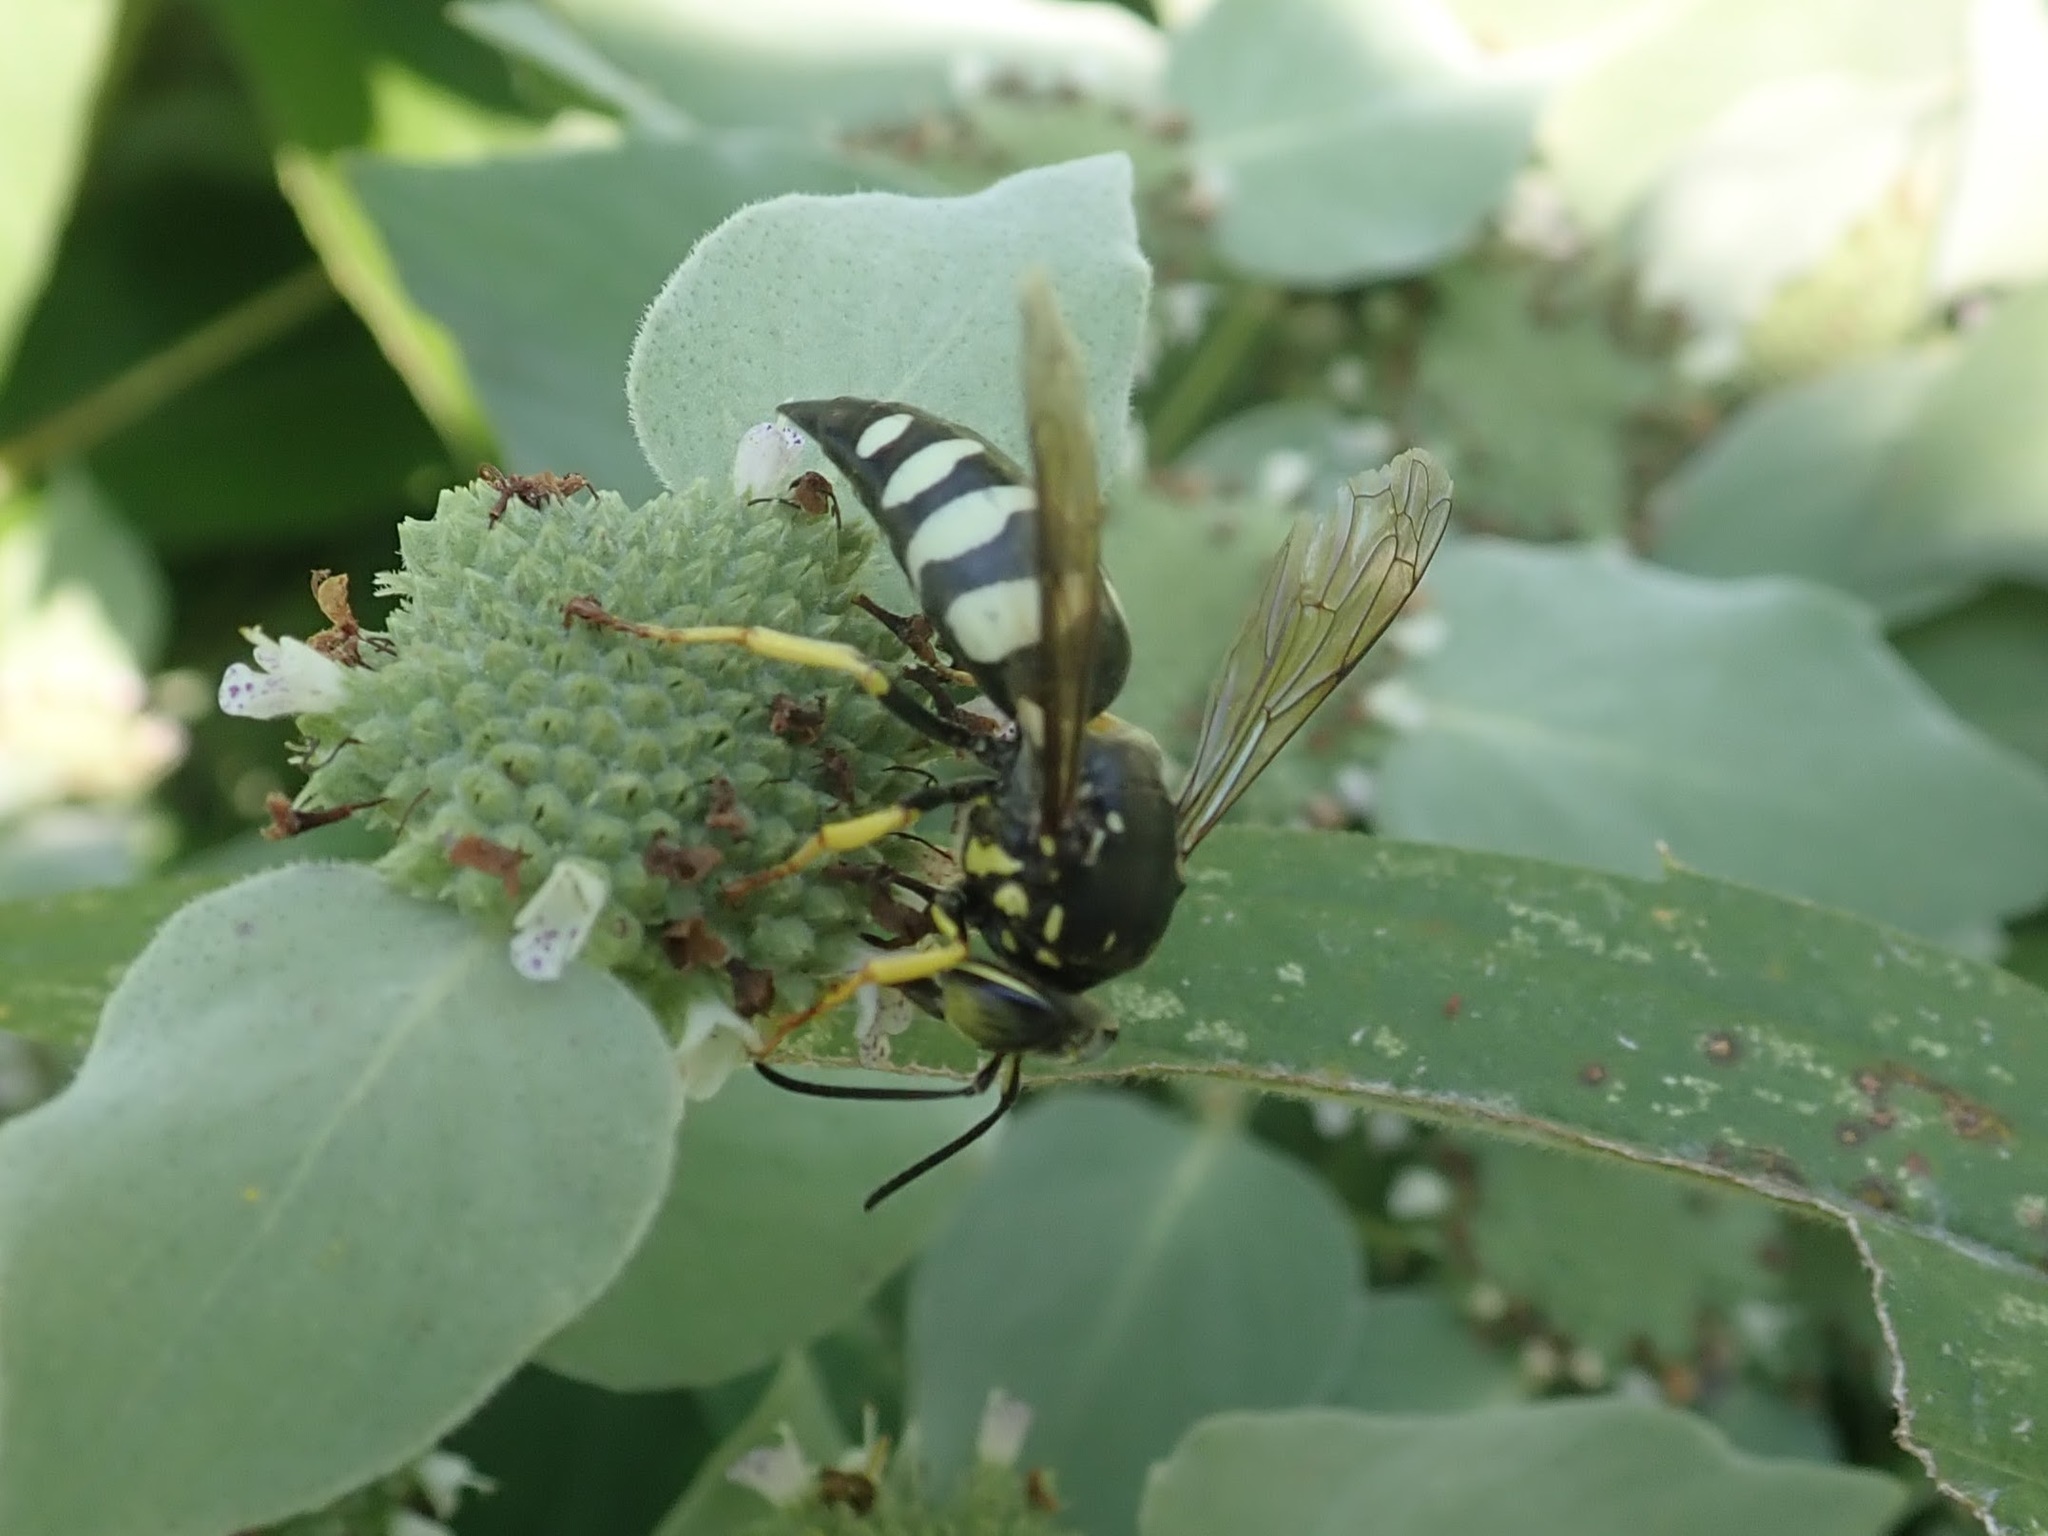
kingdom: Animalia
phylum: Arthropoda
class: Insecta
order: Hymenoptera
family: Crabronidae
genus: Bicyrtes
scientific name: Bicyrtes quadrifasciatus
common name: Four-banded stink bug hunter wasp
